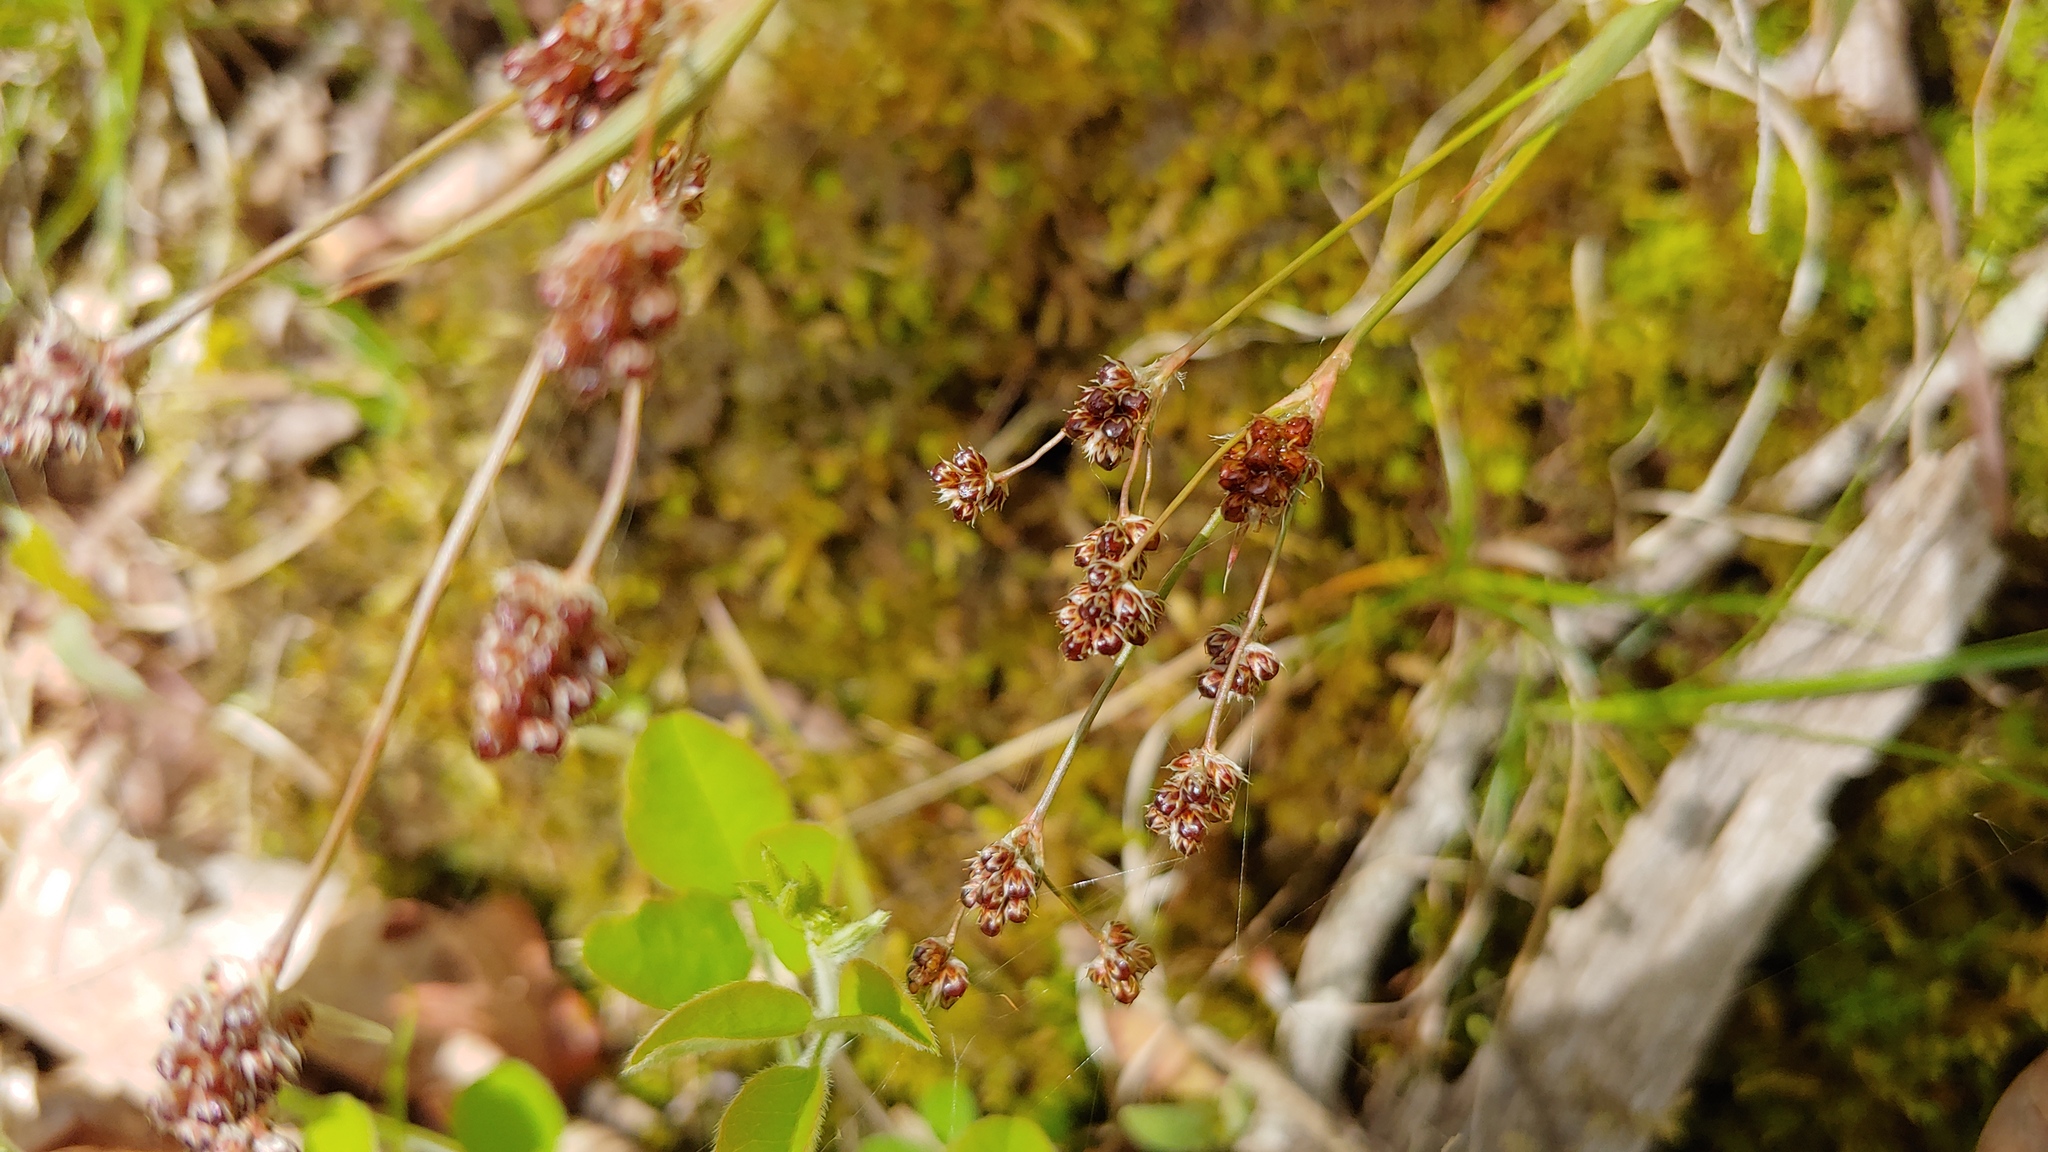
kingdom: Plantae
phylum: Tracheophyta
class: Liliopsida
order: Poales
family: Juncaceae
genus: Luzula
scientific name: Luzula multiflora
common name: Heath wood-rush
